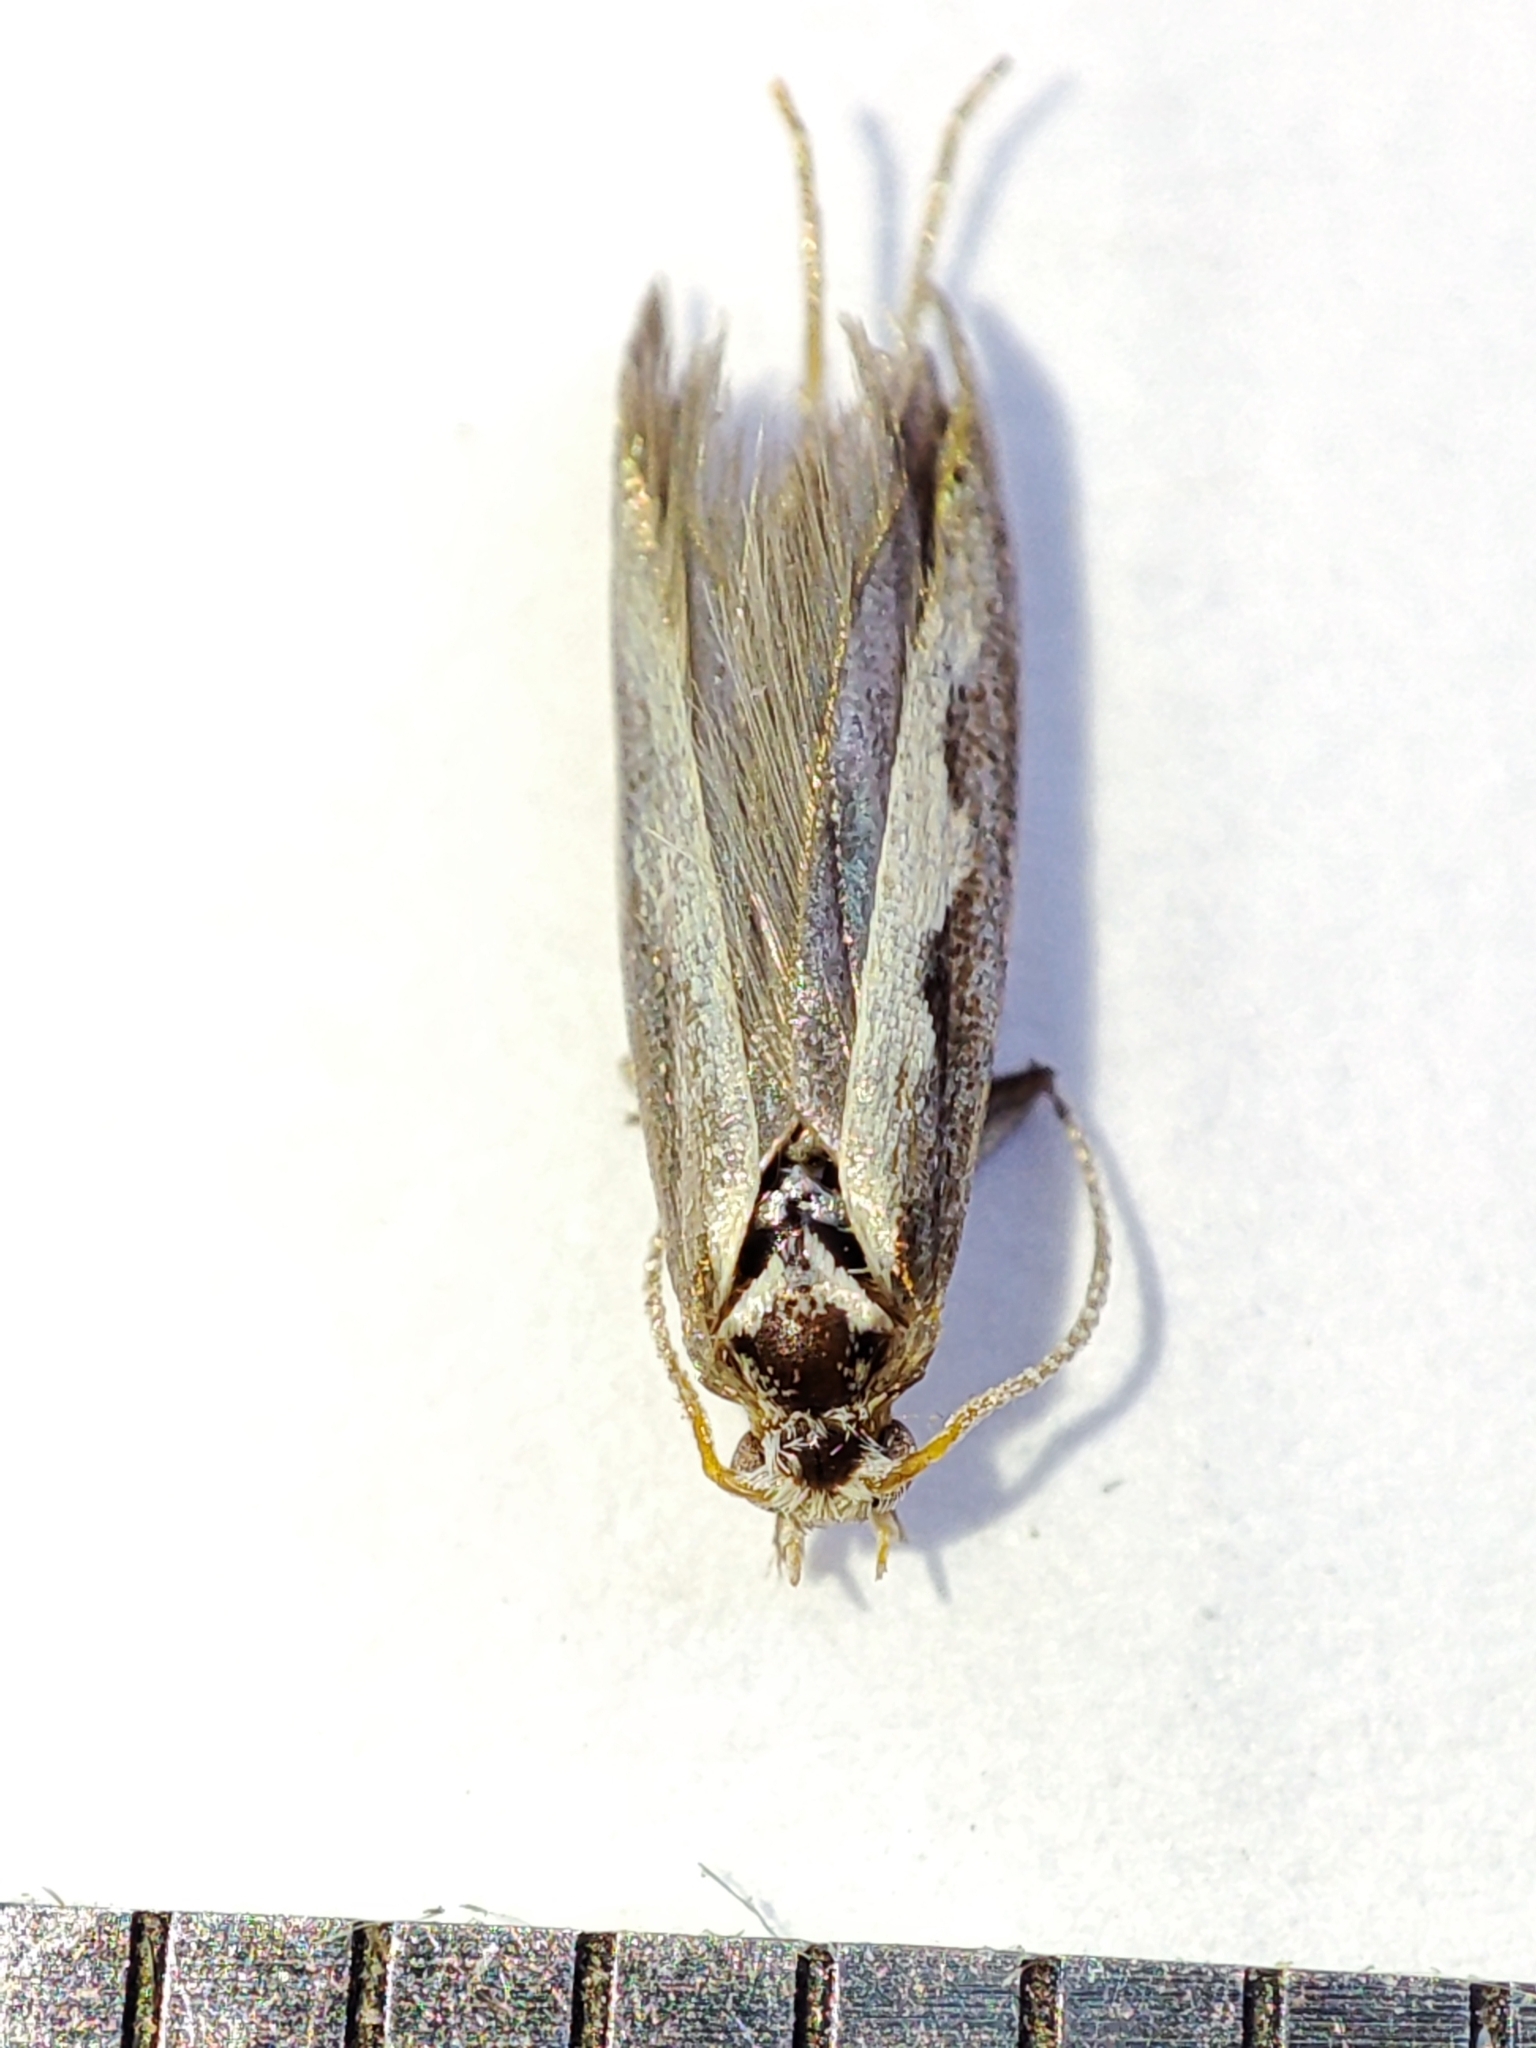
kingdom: Animalia
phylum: Arthropoda
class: Insecta
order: Lepidoptera
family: Plutellidae
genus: Plutella
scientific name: Plutella xylostella
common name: Diamond-back moth
